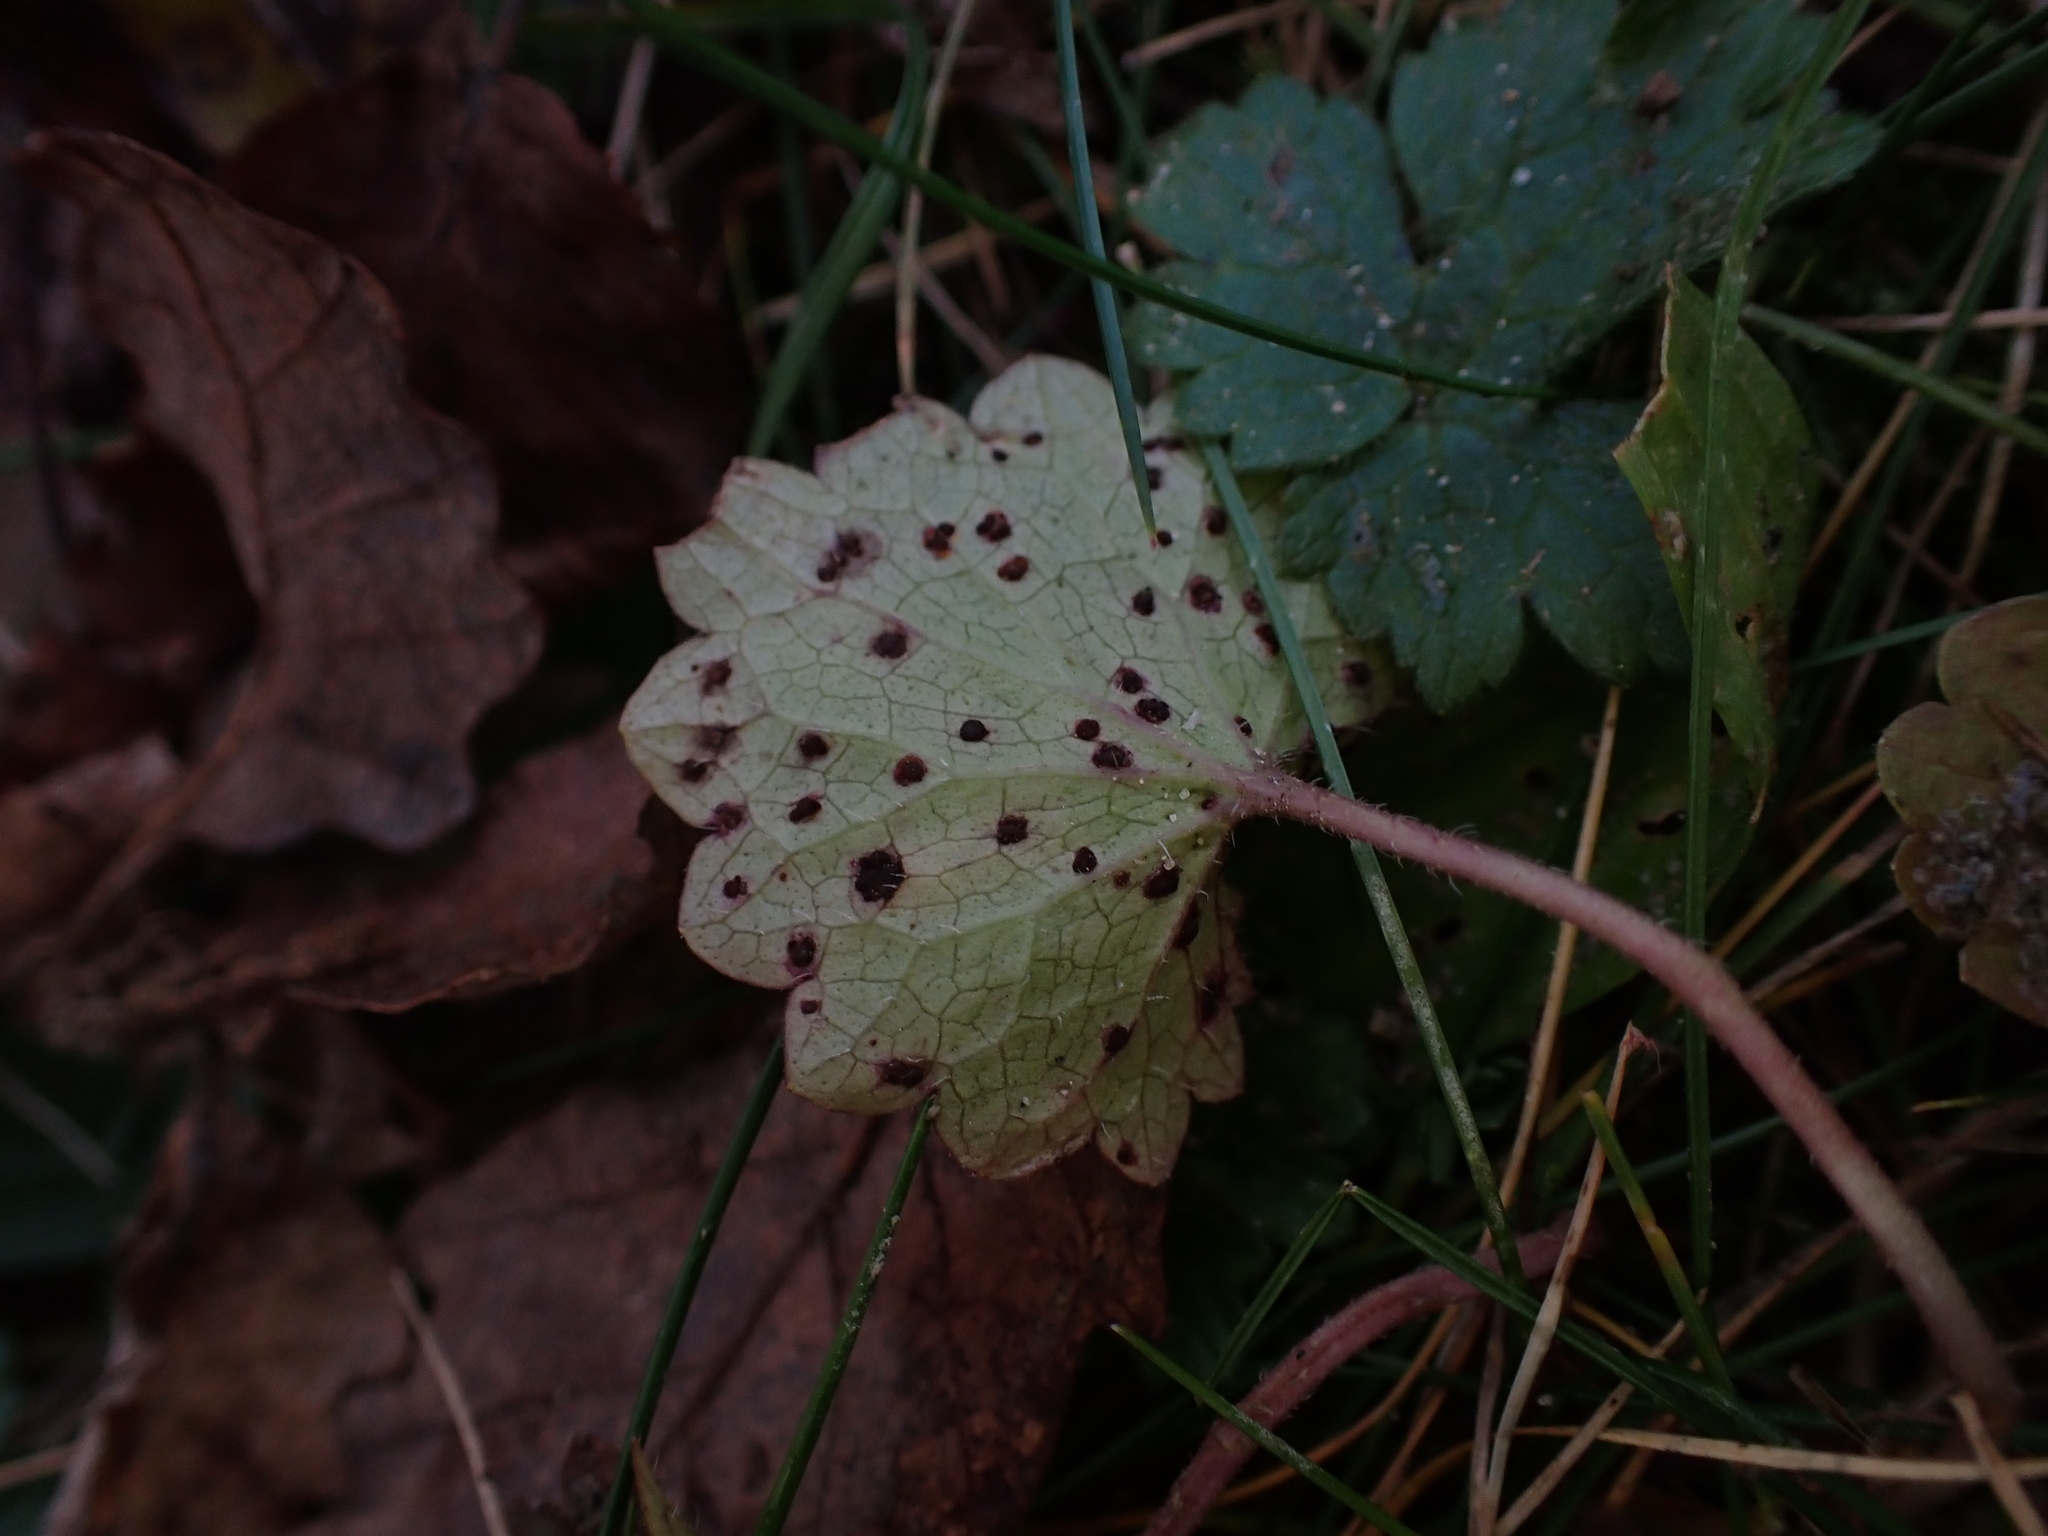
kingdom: Fungi
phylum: Basidiomycota
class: Pucciniomycetes
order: Pucciniales
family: Pucciniaceae
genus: Puccinia
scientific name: Puccinia glechomatis
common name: Ground ivy rust
